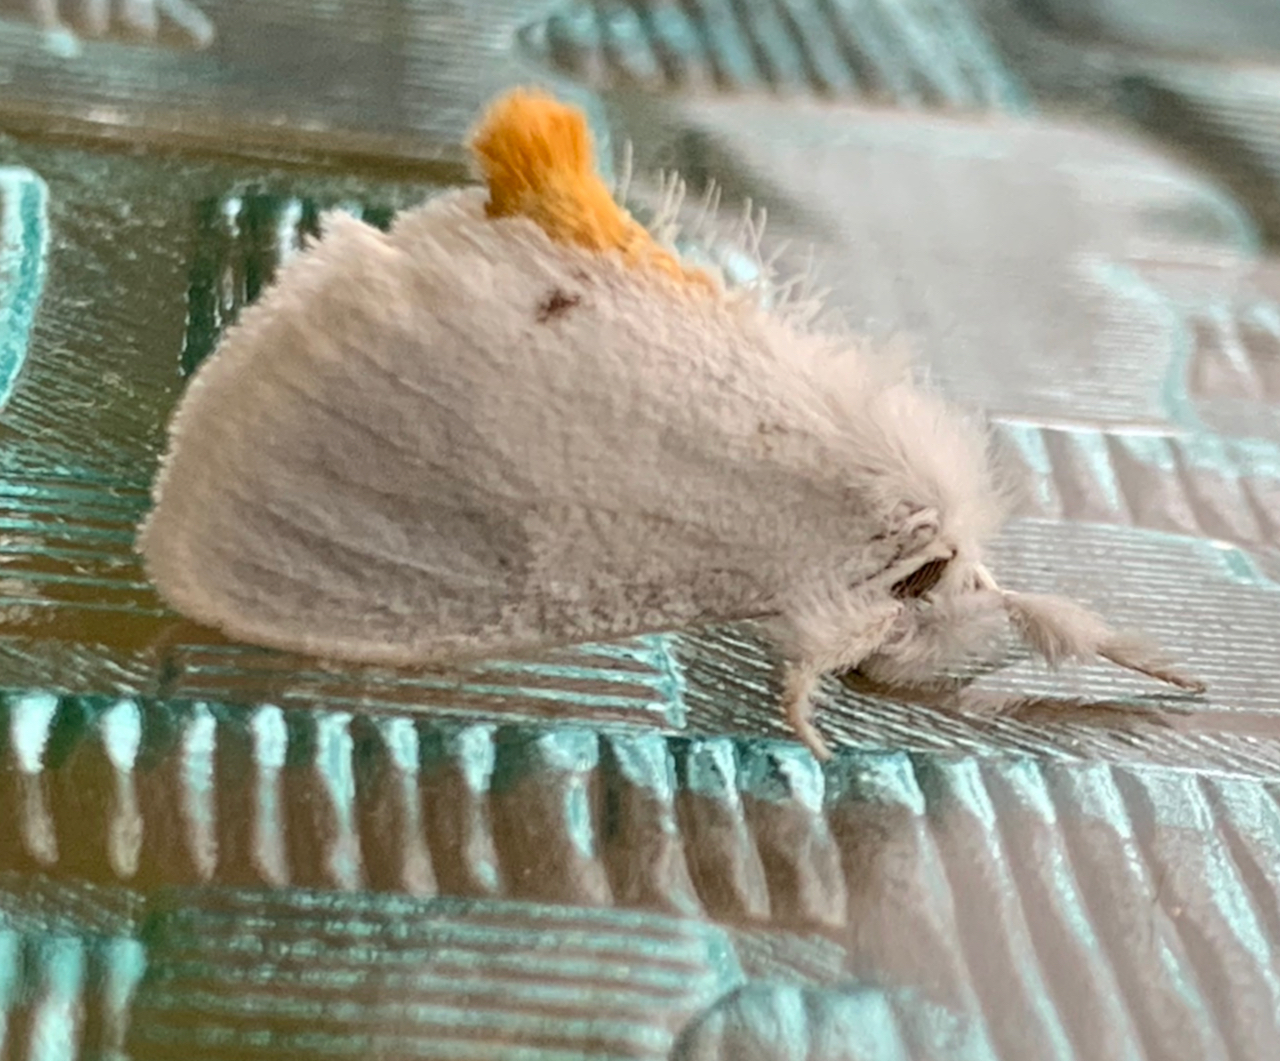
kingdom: Animalia
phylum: Arthropoda
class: Insecta
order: Lepidoptera
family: Erebidae
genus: Sphrageidus
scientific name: Sphrageidus similis
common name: Yellow-tail
